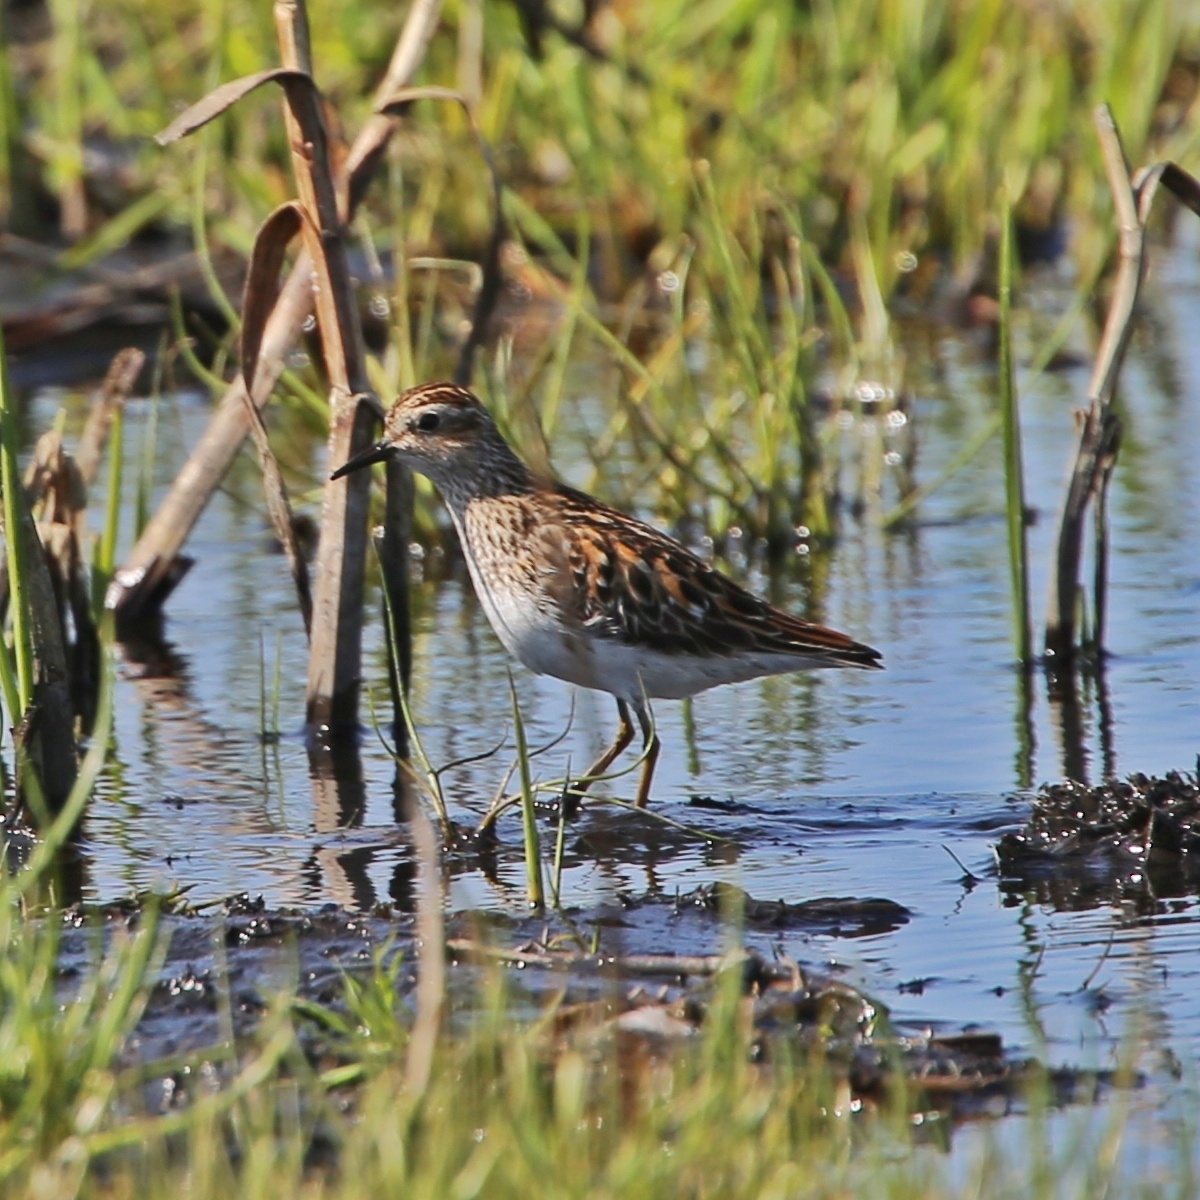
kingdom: Animalia
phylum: Chordata
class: Aves
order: Charadriiformes
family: Scolopacidae
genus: Calidris
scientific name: Calidris subminuta
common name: Long-toed stint
